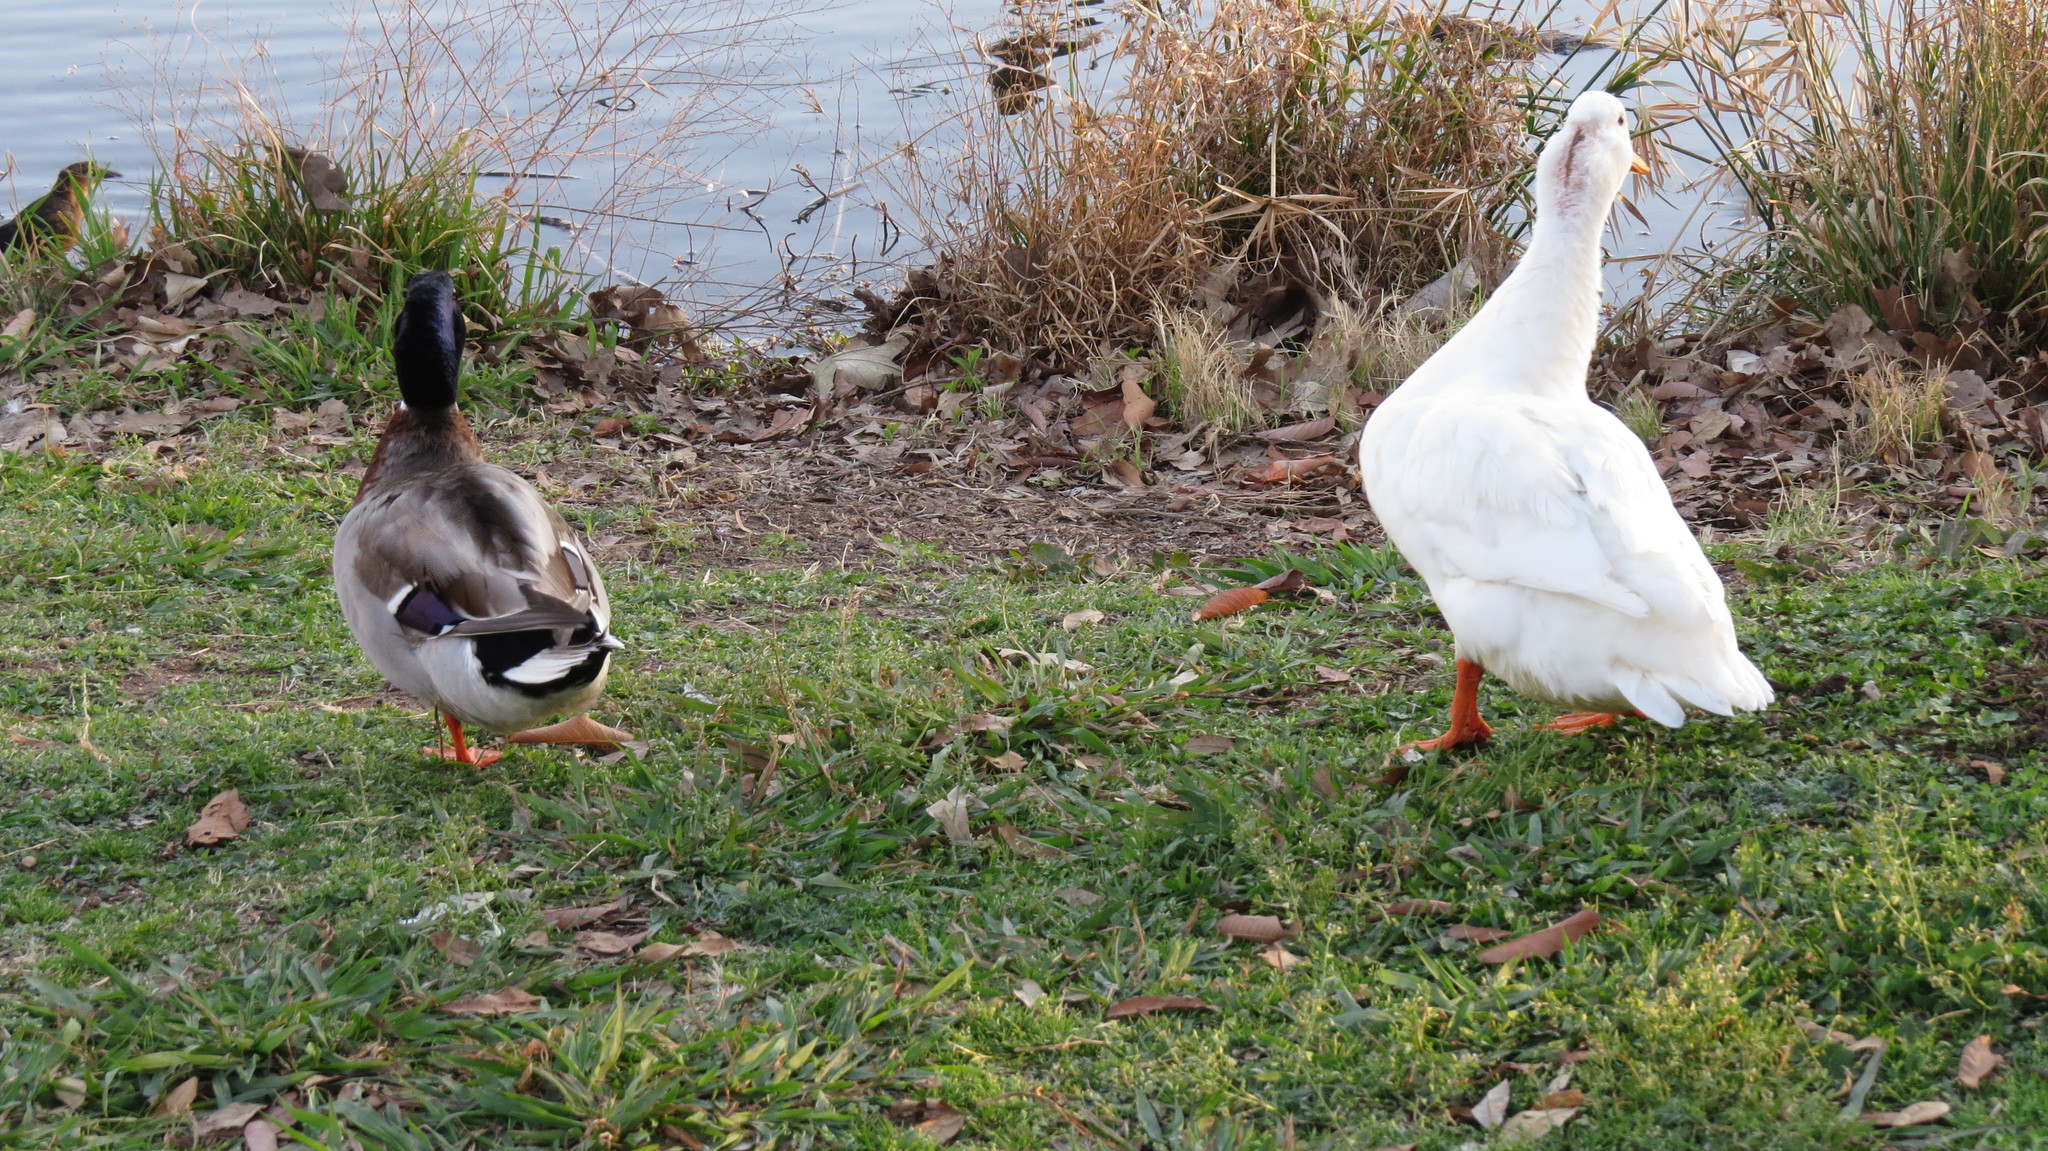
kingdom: Animalia
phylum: Chordata
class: Aves
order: Anseriformes
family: Anatidae
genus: Anas
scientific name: Anas platyrhynchos
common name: Mallard
